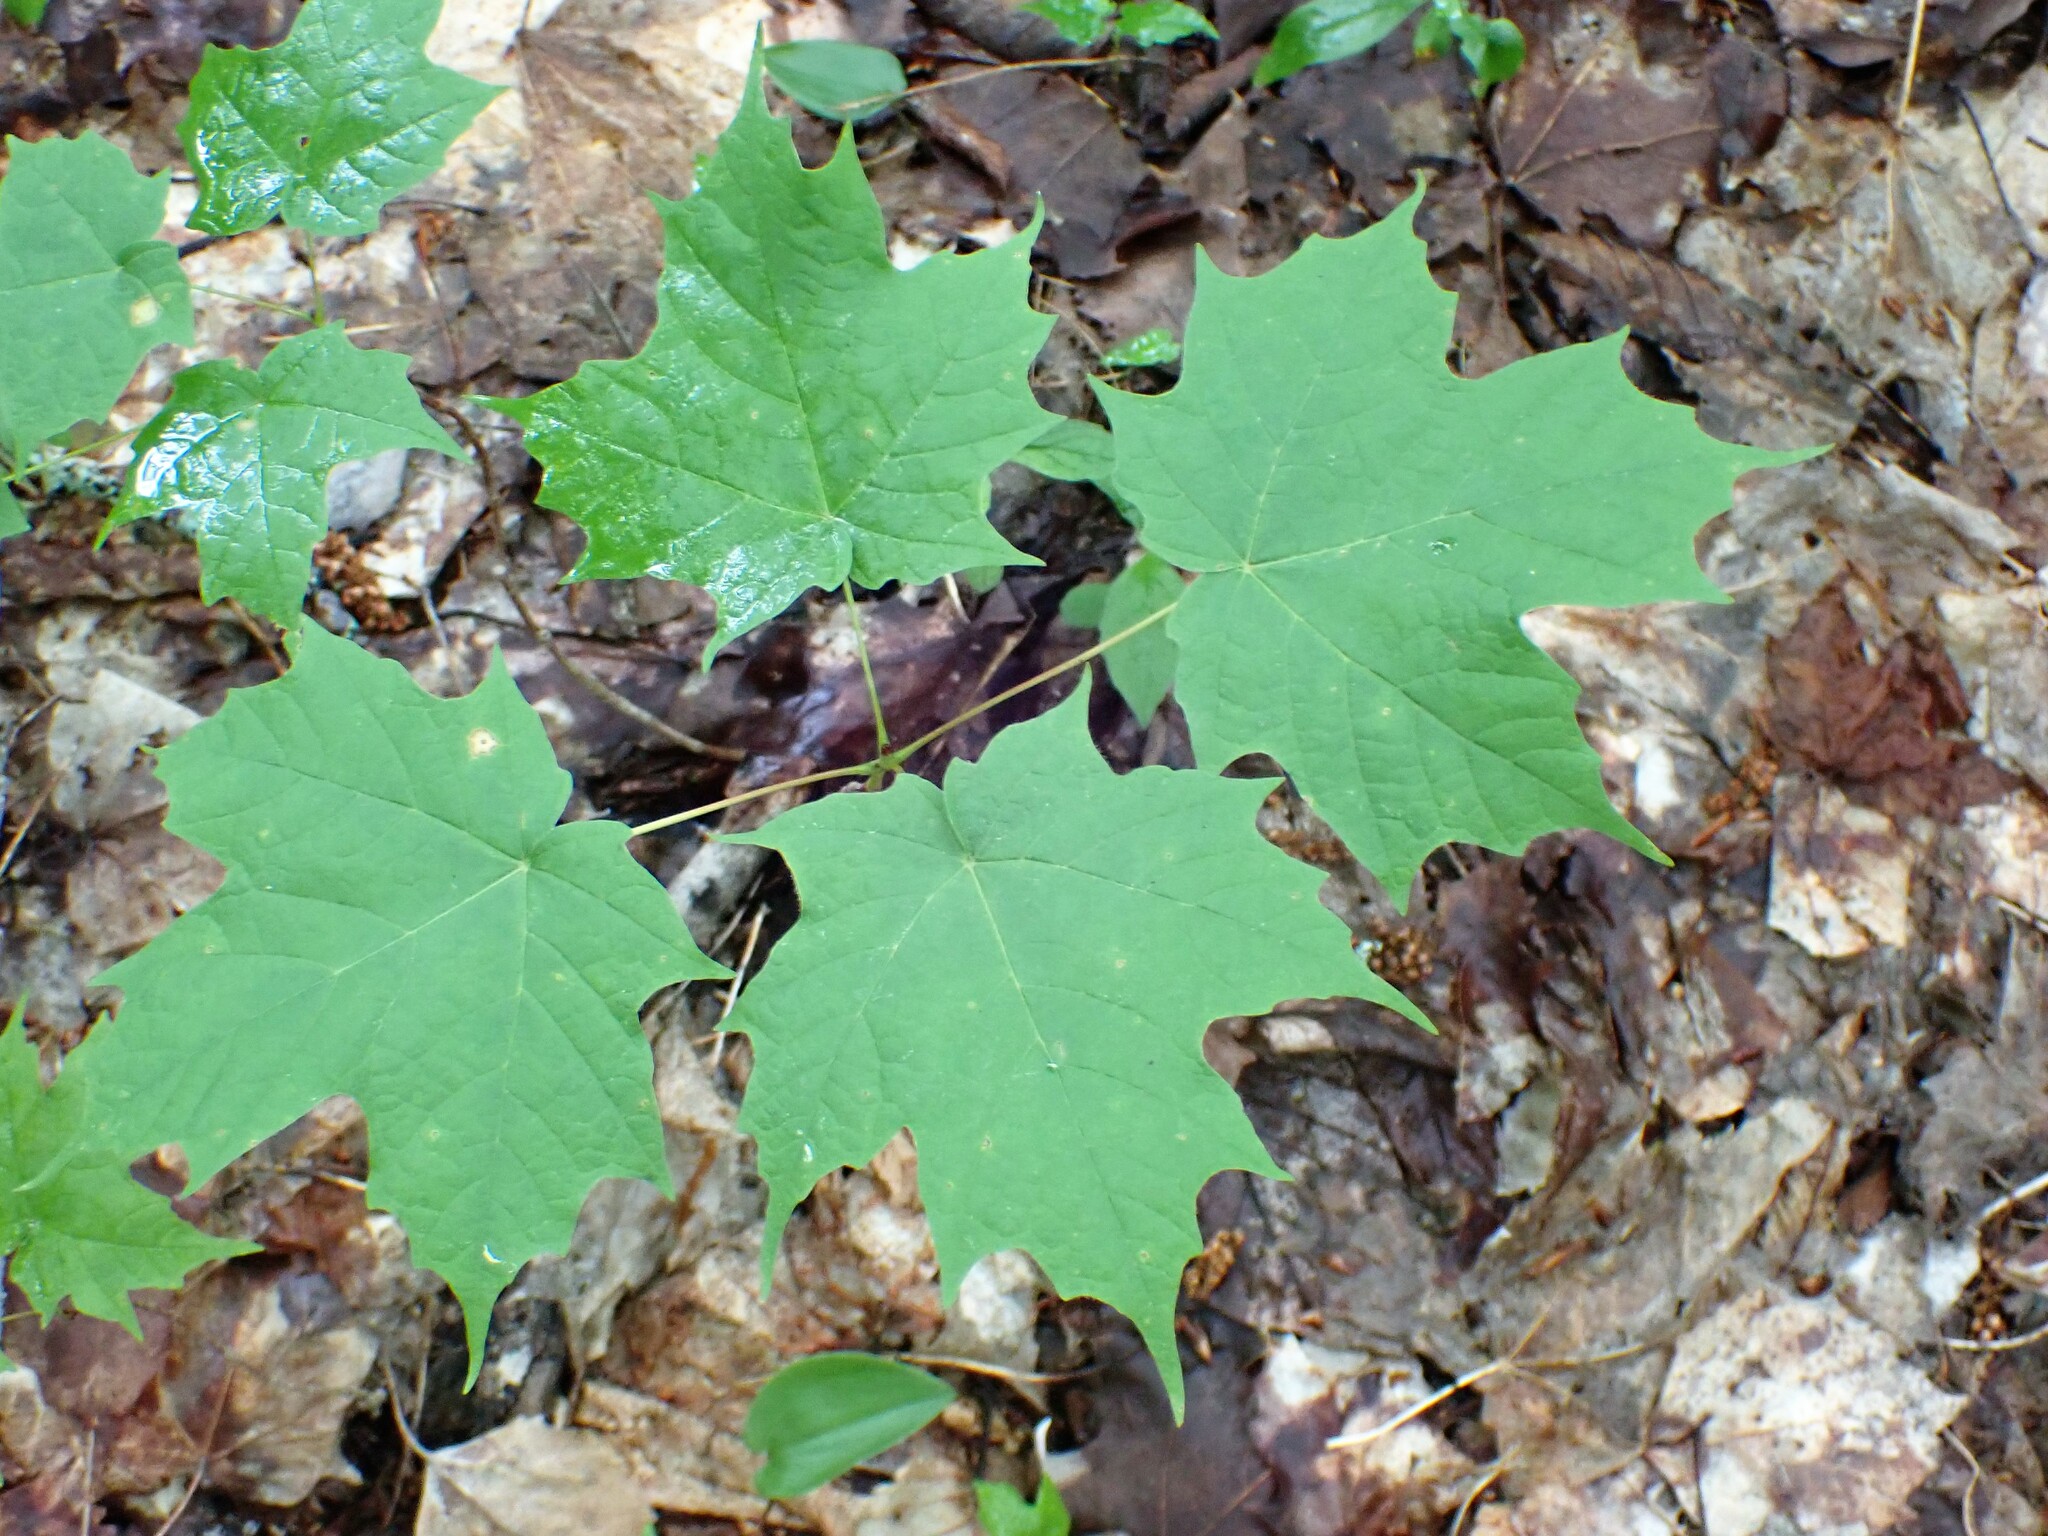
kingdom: Plantae
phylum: Tracheophyta
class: Magnoliopsida
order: Sapindales
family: Sapindaceae
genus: Acer
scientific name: Acer saccharum
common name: Sugar maple
